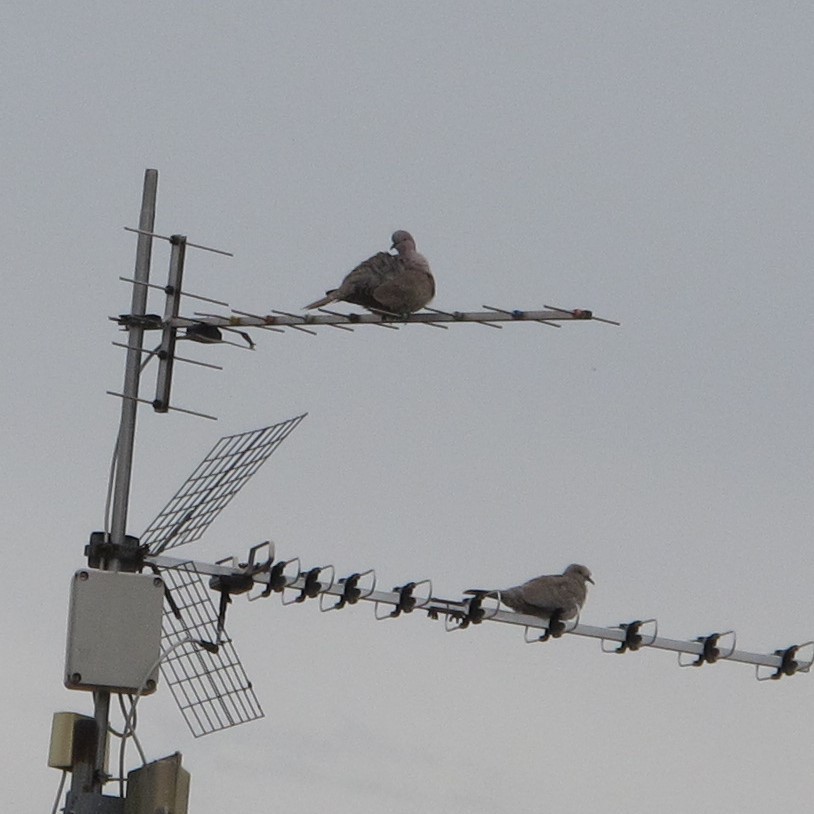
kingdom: Animalia
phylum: Chordata
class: Aves
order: Columbiformes
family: Columbidae
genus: Streptopelia
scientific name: Streptopelia decaocto
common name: Eurasian collared dove
